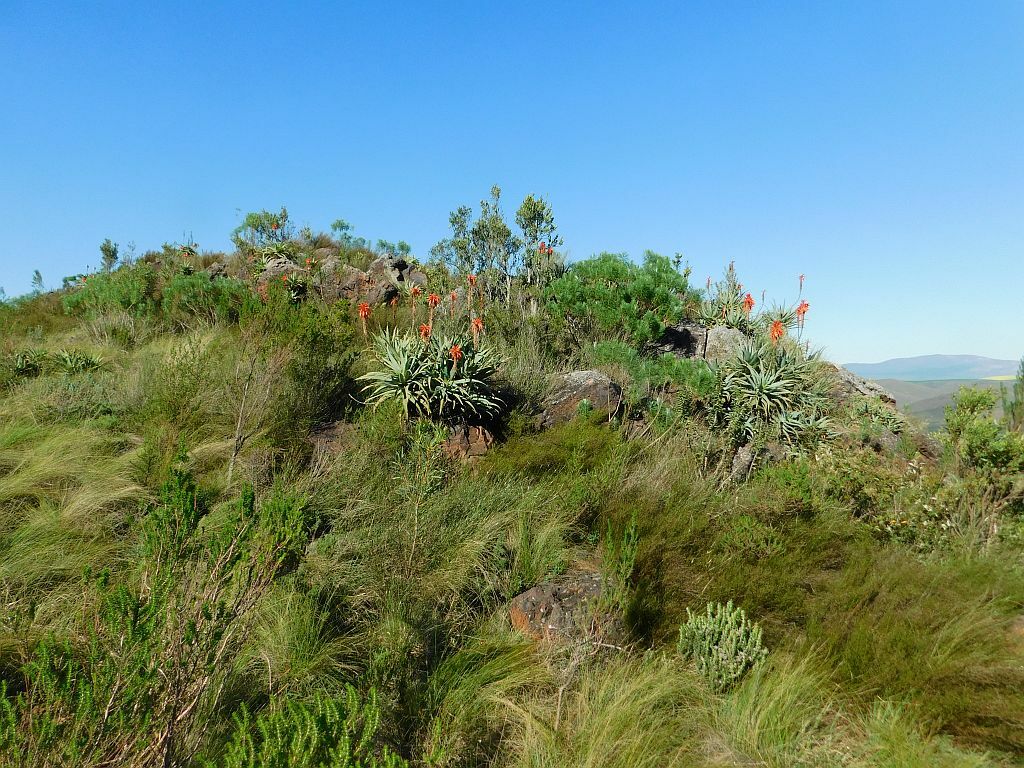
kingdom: Plantae
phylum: Tracheophyta
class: Liliopsida
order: Asparagales
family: Asphodelaceae
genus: Aloe
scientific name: Aloe arborescens
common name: Candelabra aloe
